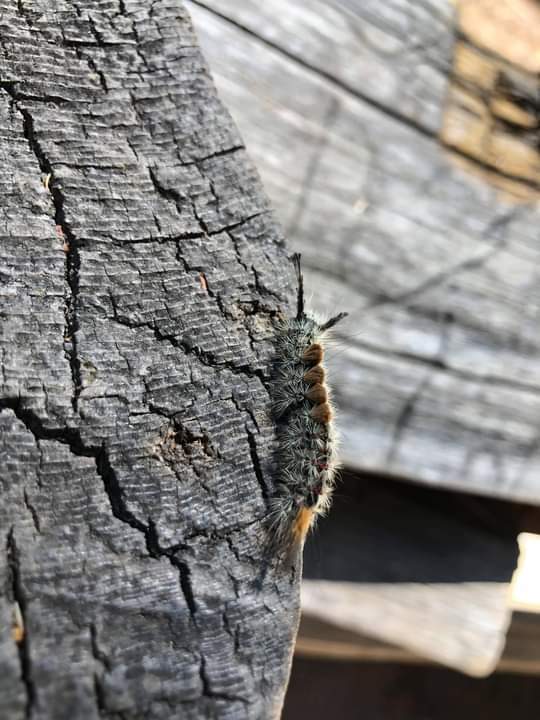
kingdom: Animalia
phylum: Arthropoda
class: Insecta
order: Lepidoptera
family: Erebidae
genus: Orgyia
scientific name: Orgyia pseudotsugata
